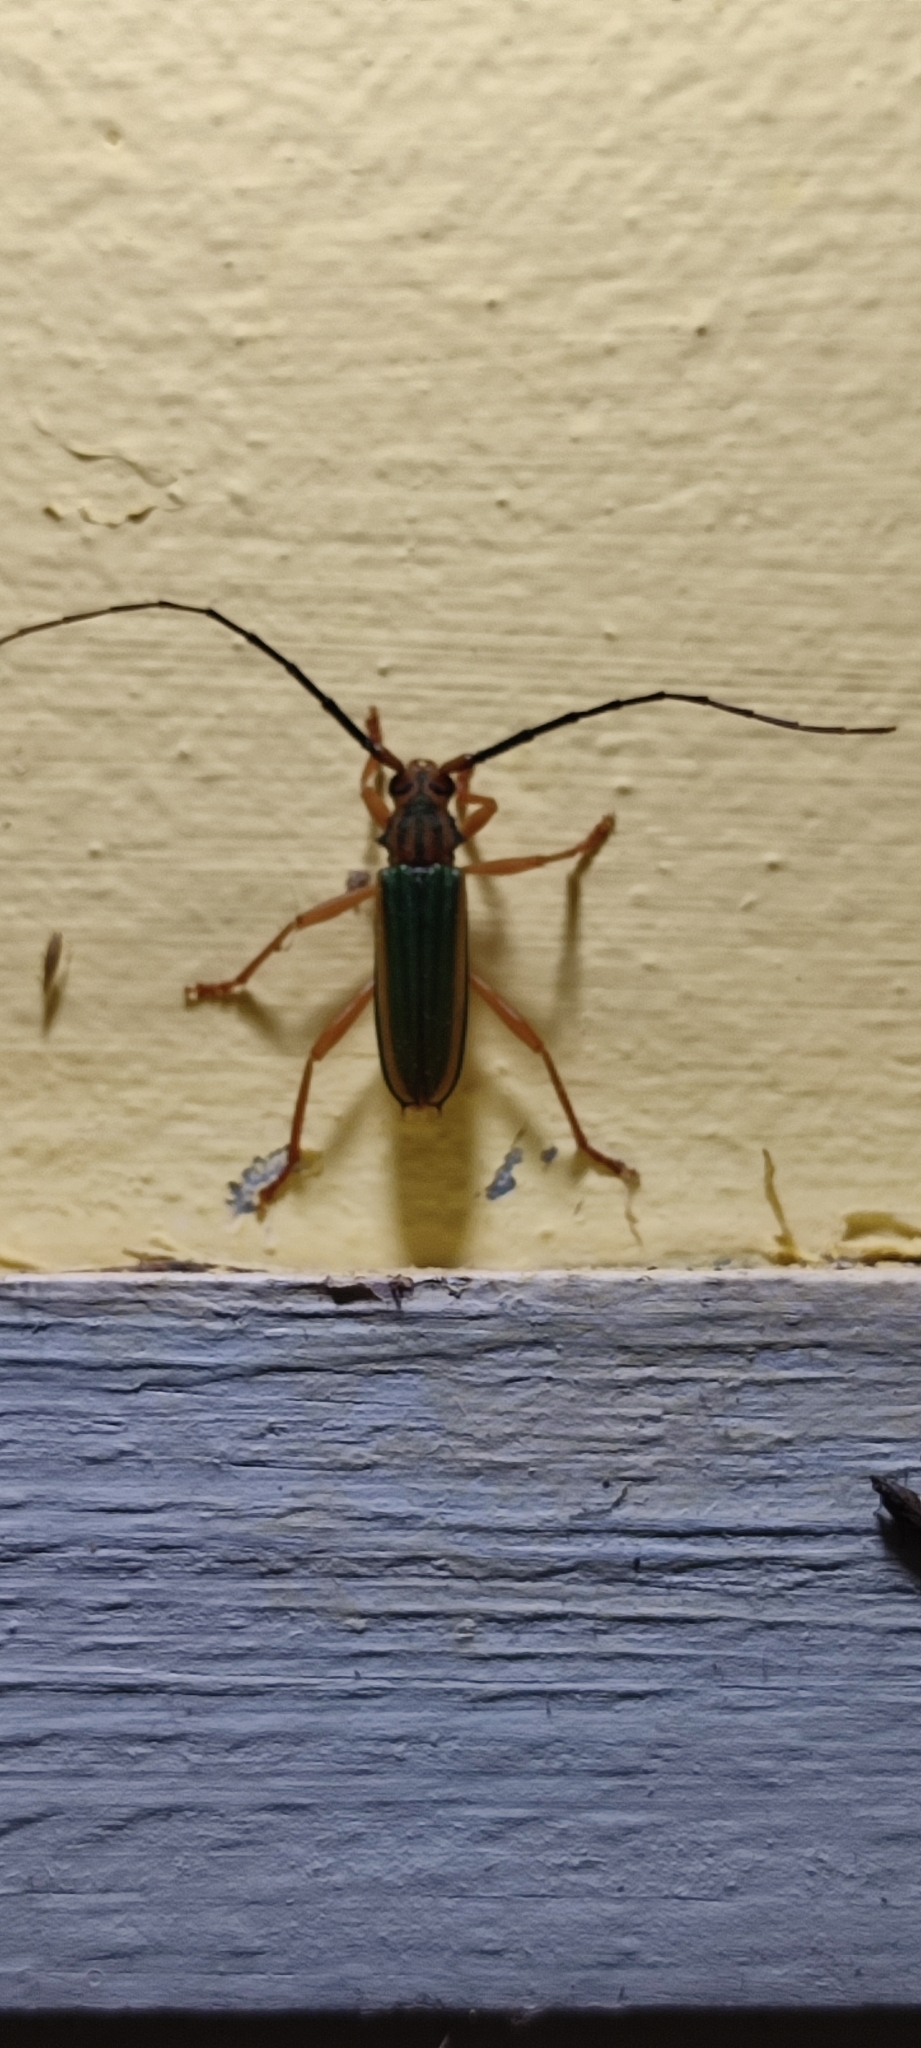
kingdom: Animalia
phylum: Arthropoda
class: Insecta
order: Coleoptera
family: Cerambycidae
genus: Chlorida
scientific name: Chlorida festiva
